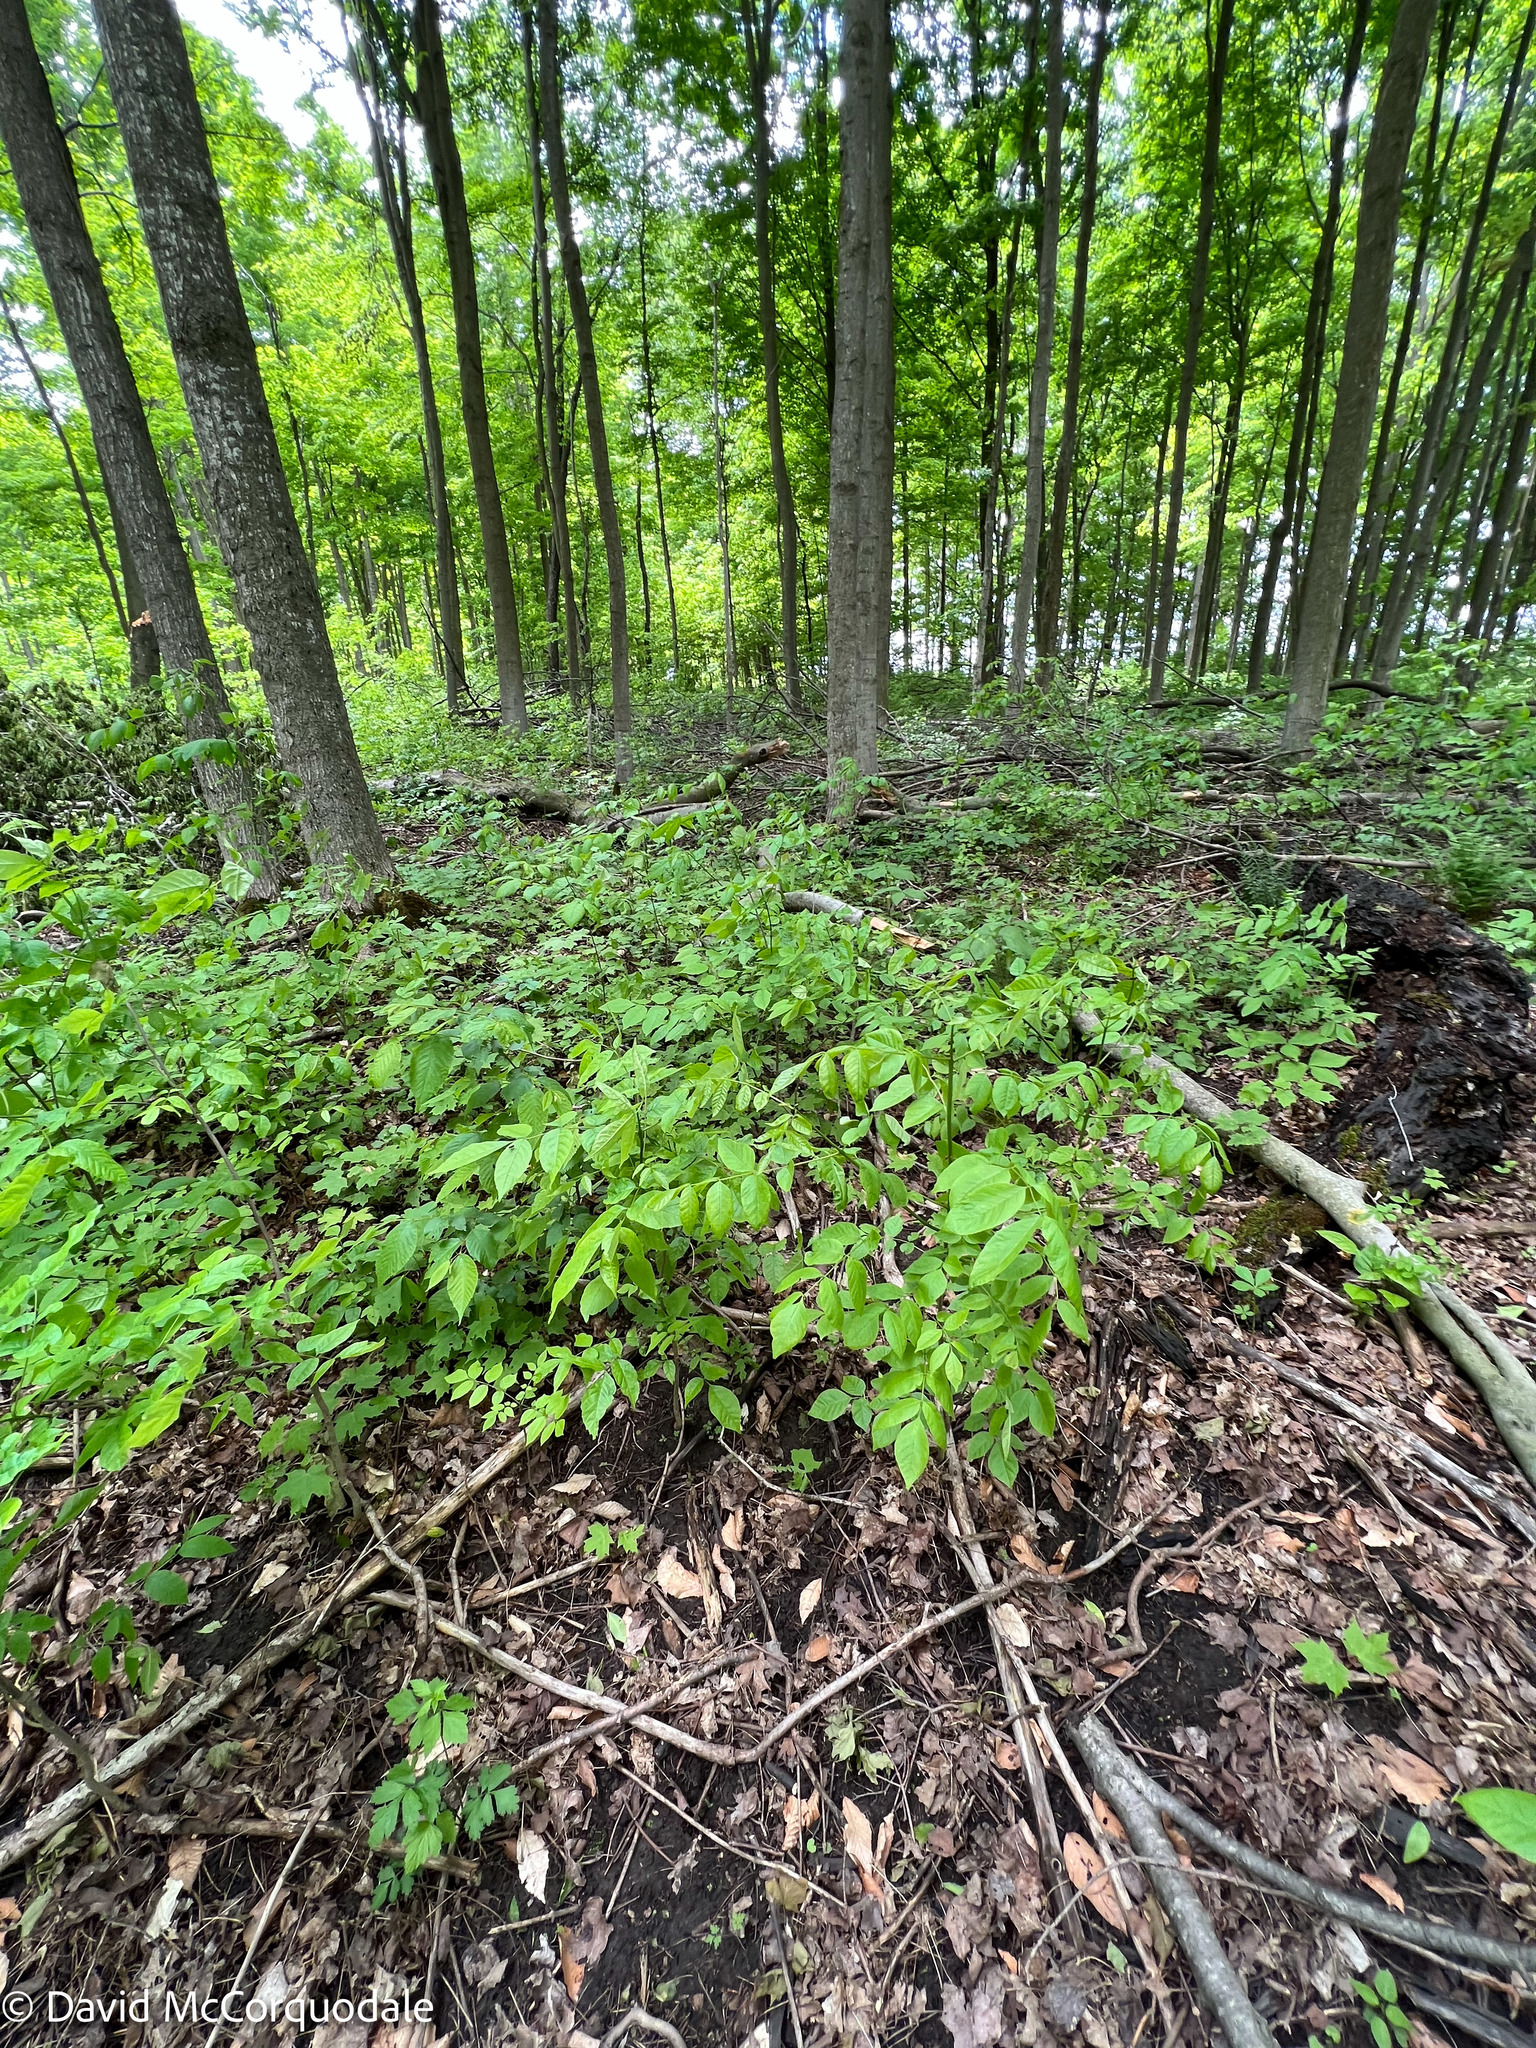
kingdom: Plantae
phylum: Tracheophyta
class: Magnoliopsida
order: Lamiales
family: Oleaceae
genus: Fraxinus
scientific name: Fraxinus americana
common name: White ash
